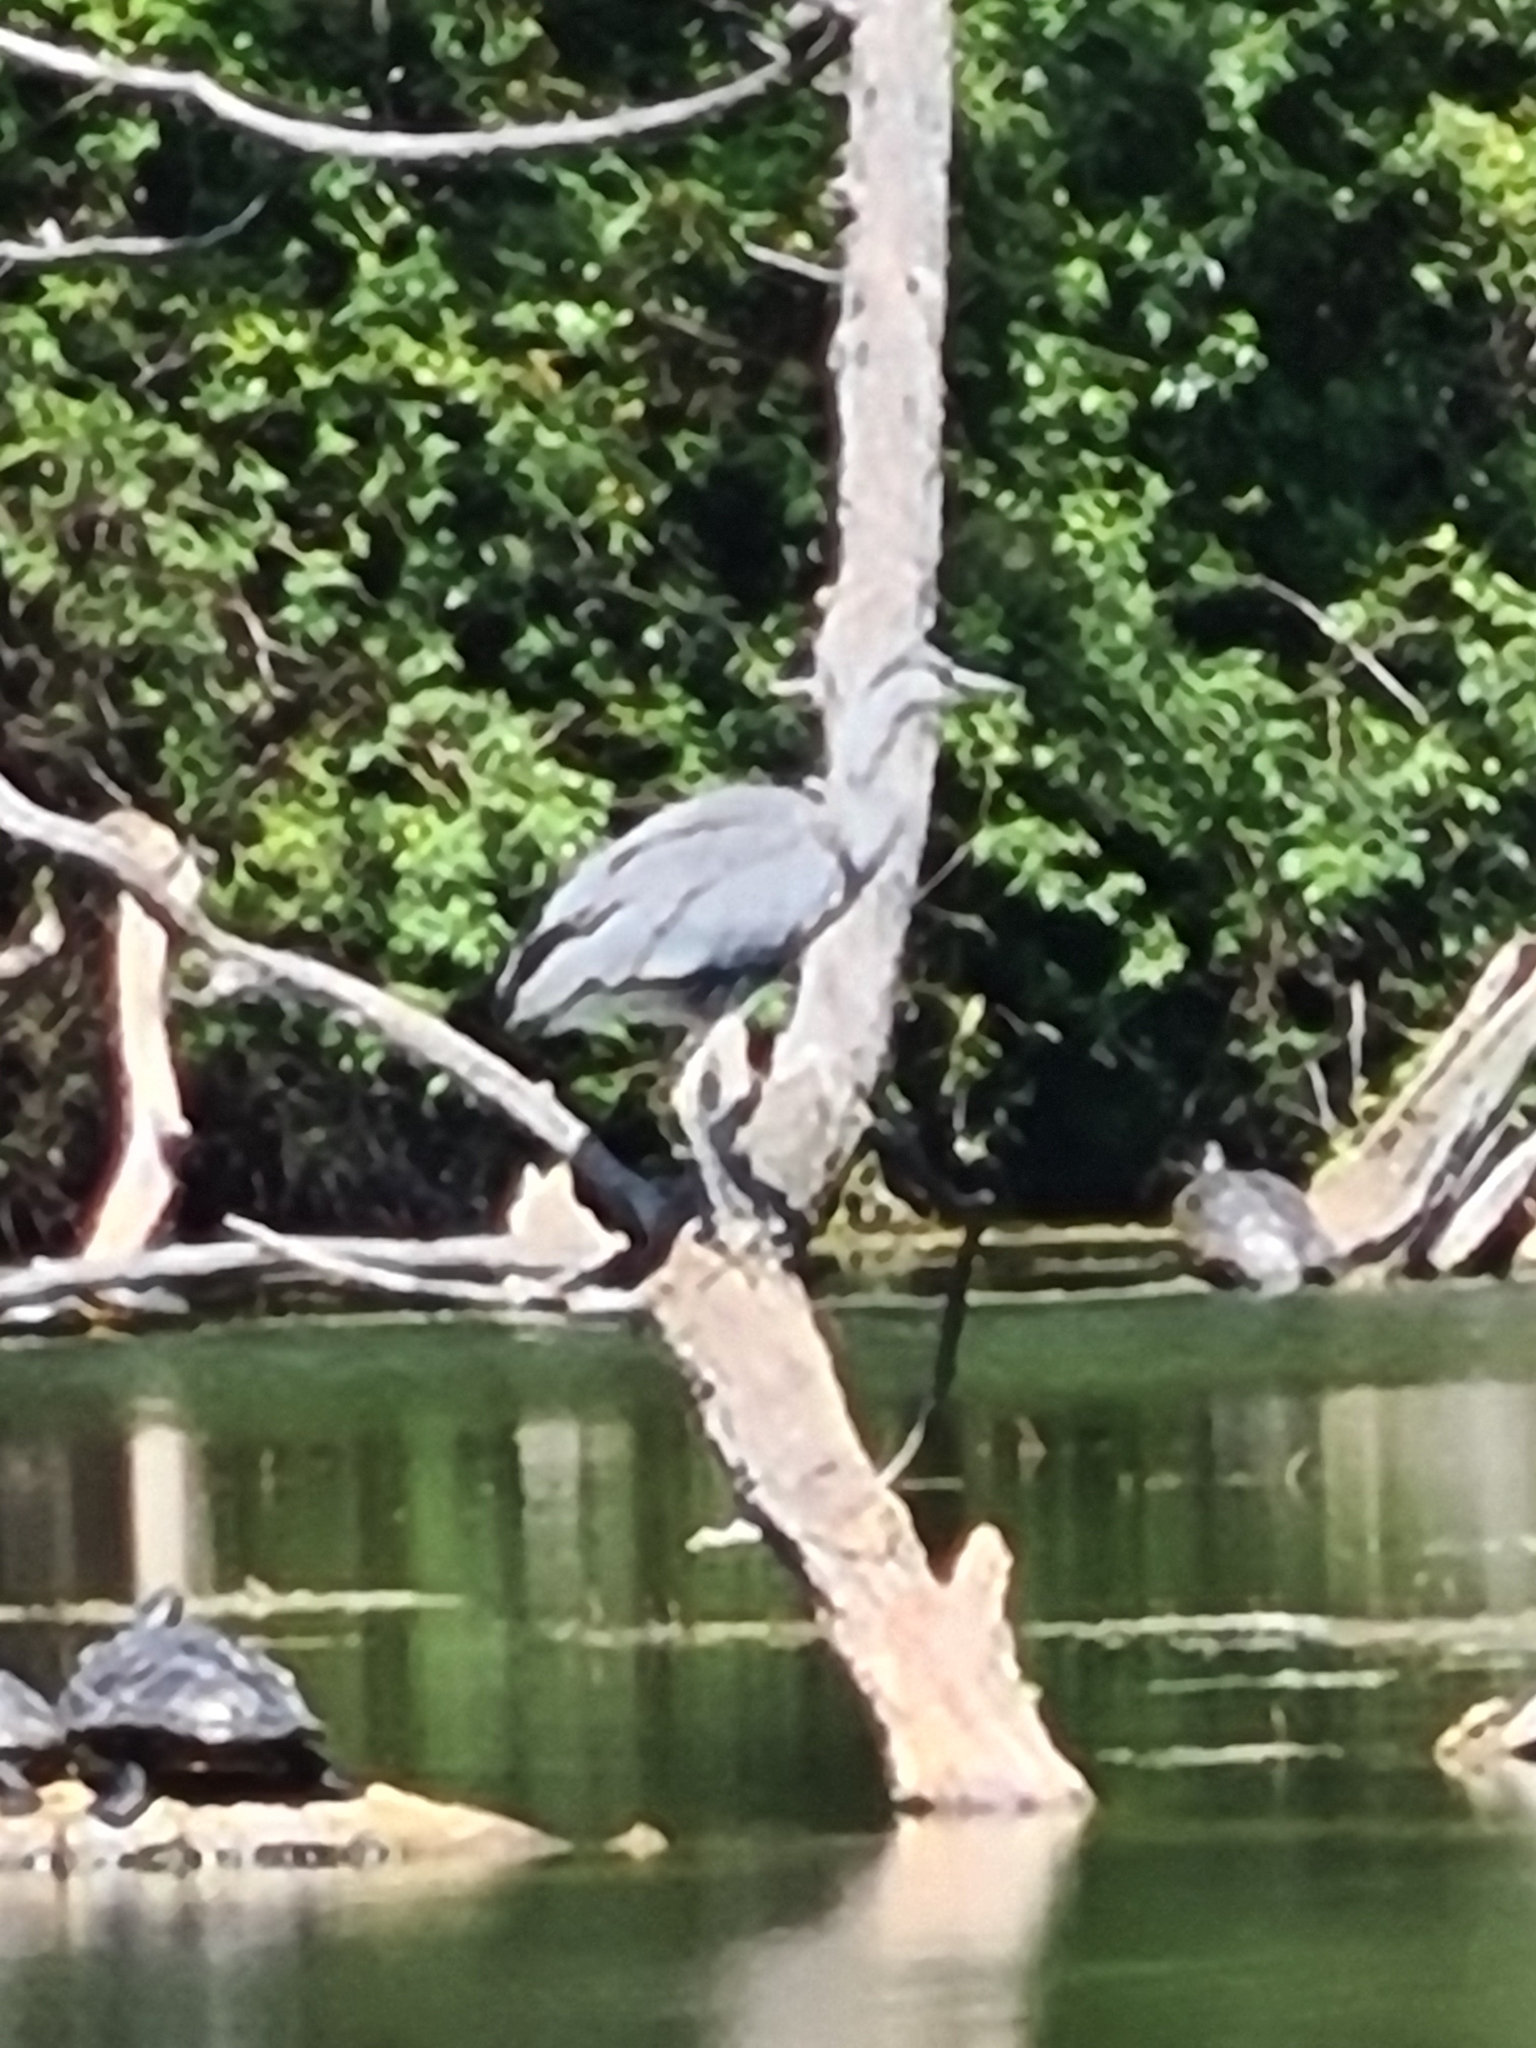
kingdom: Animalia
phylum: Chordata
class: Aves
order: Pelecaniformes
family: Ardeidae
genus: Ardea
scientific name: Ardea cinerea
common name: Grey heron
